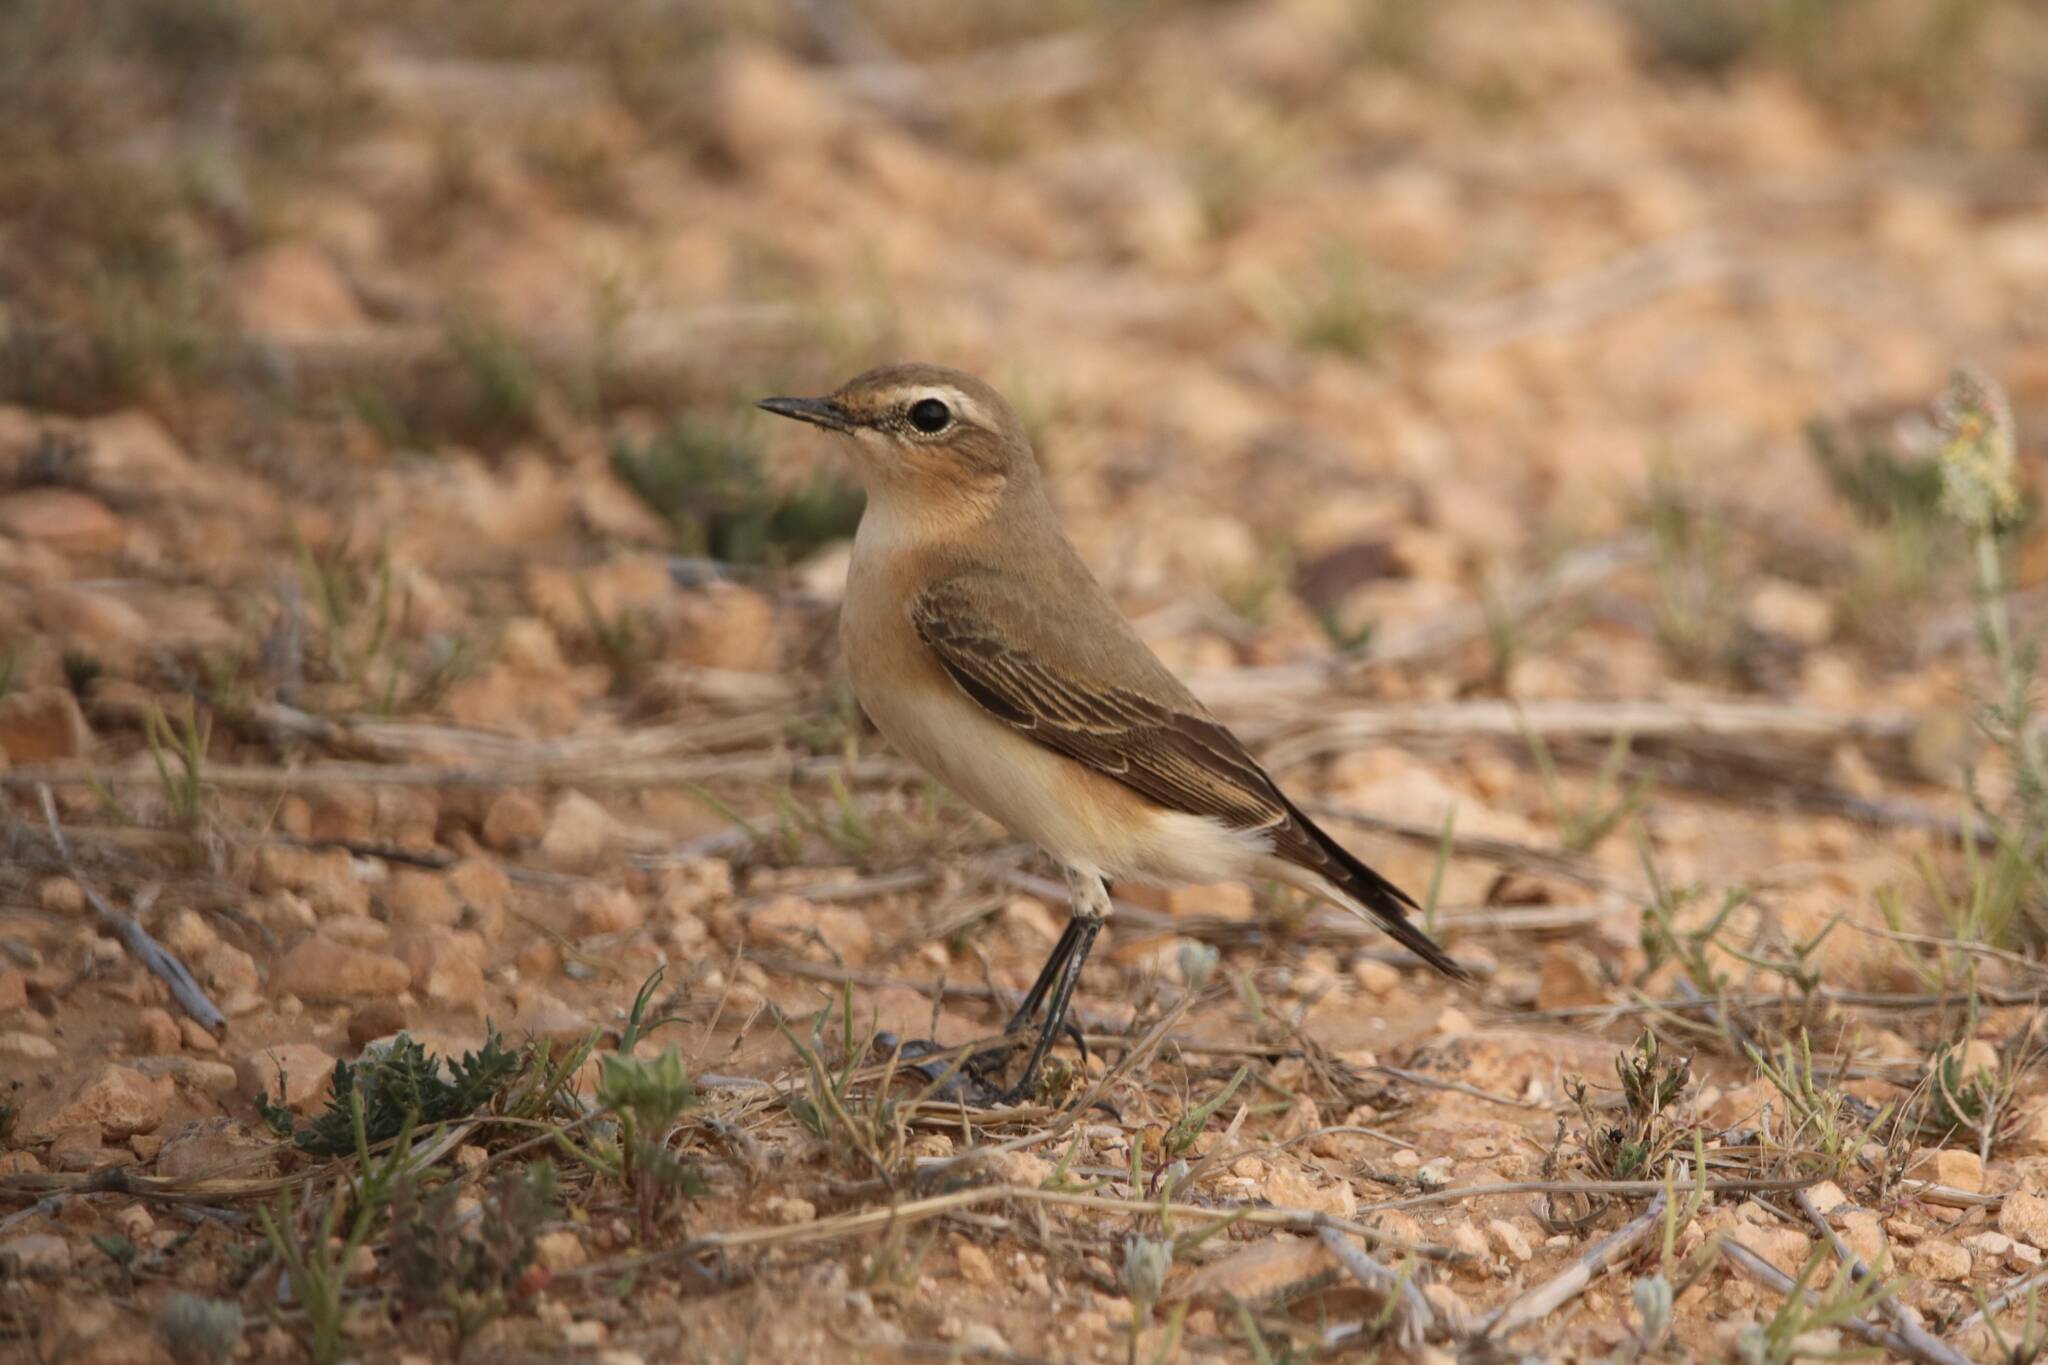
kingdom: Animalia
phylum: Chordata
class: Aves
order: Passeriformes
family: Muscicapidae
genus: Oenanthe
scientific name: Oenanthe oenanthe
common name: Northern wheatear
